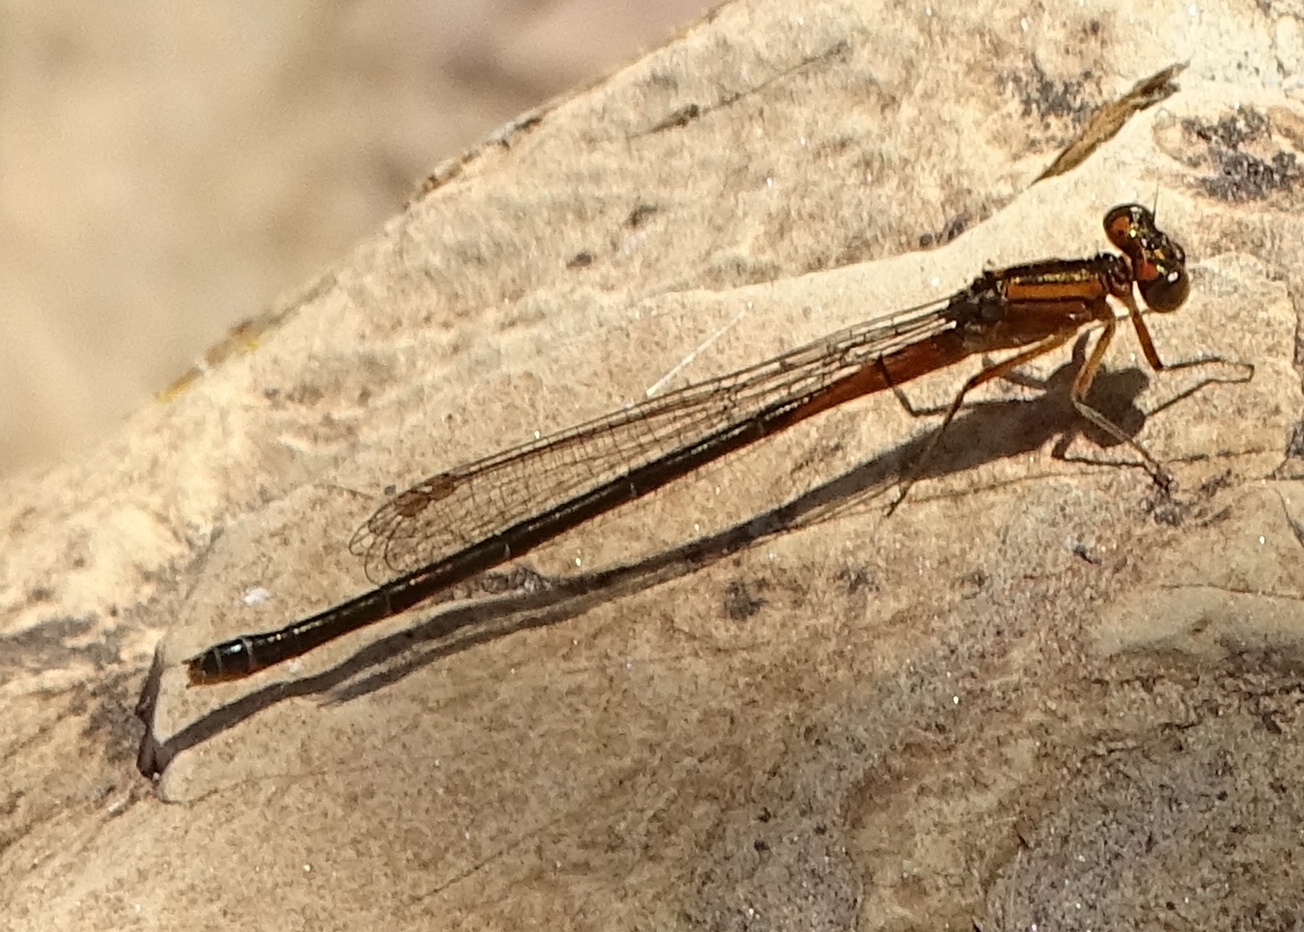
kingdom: Animalia
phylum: Arthropoda
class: Insecta
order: Odonata
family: Coenagrionidae
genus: Ischnura
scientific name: Ischnura verticalis
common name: Eastern forktail
